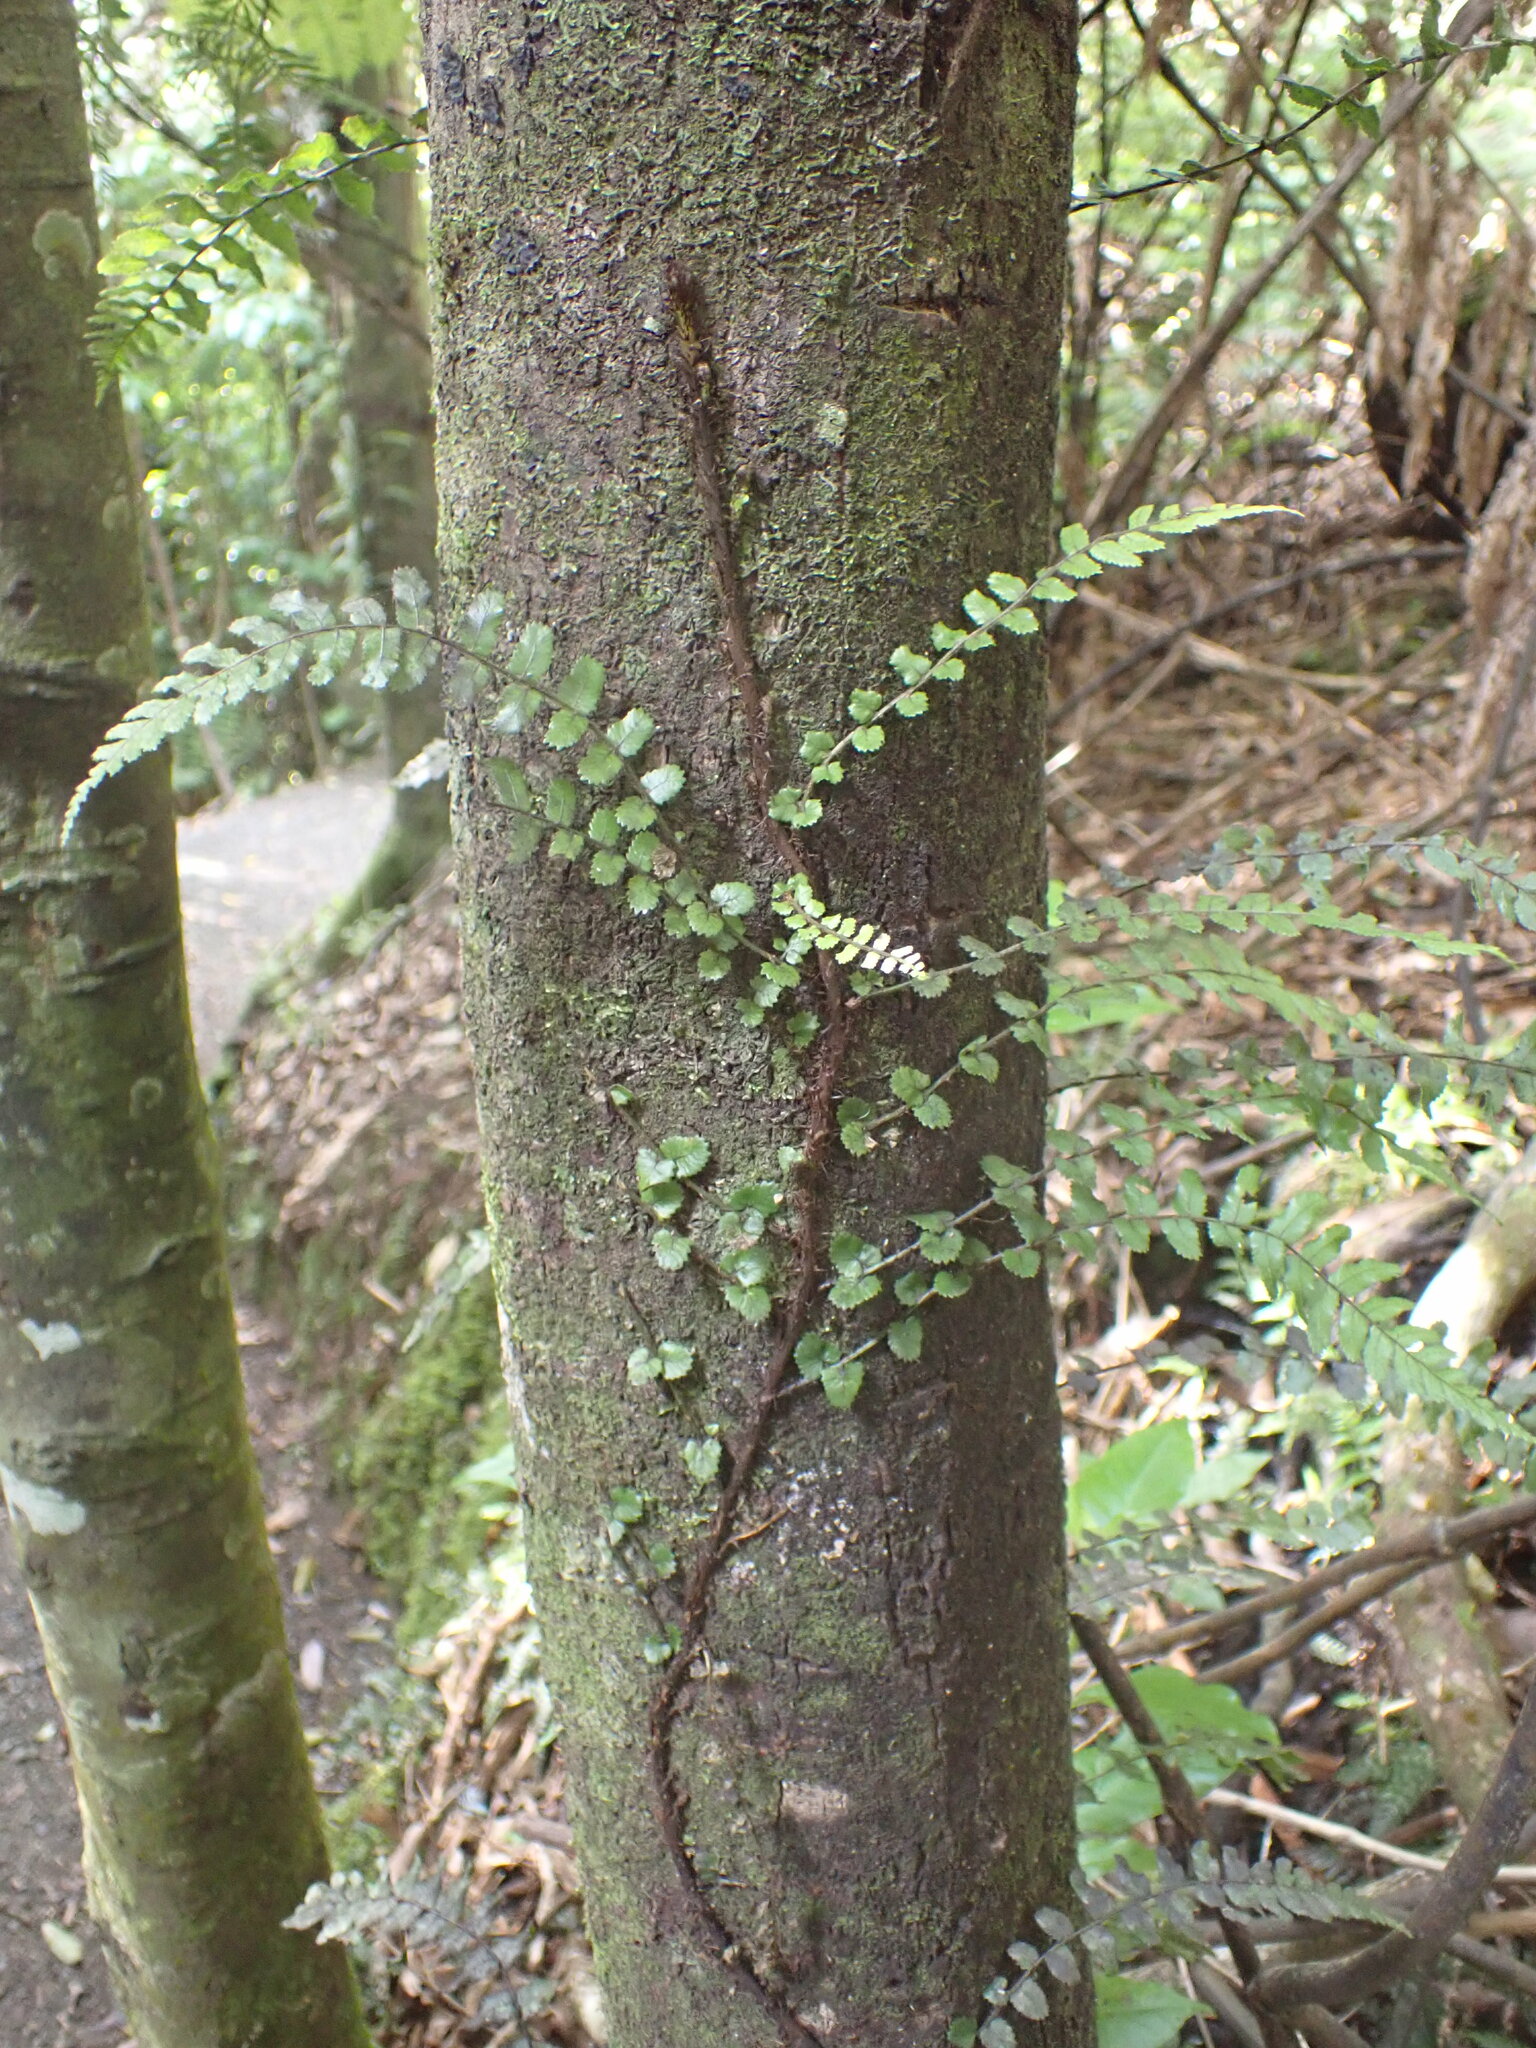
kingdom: Plantae
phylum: Tracheophyta
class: Polypodiopsida
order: Polypodiales
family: Blechnaceae
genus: Icarus
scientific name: Icarus filiformis
